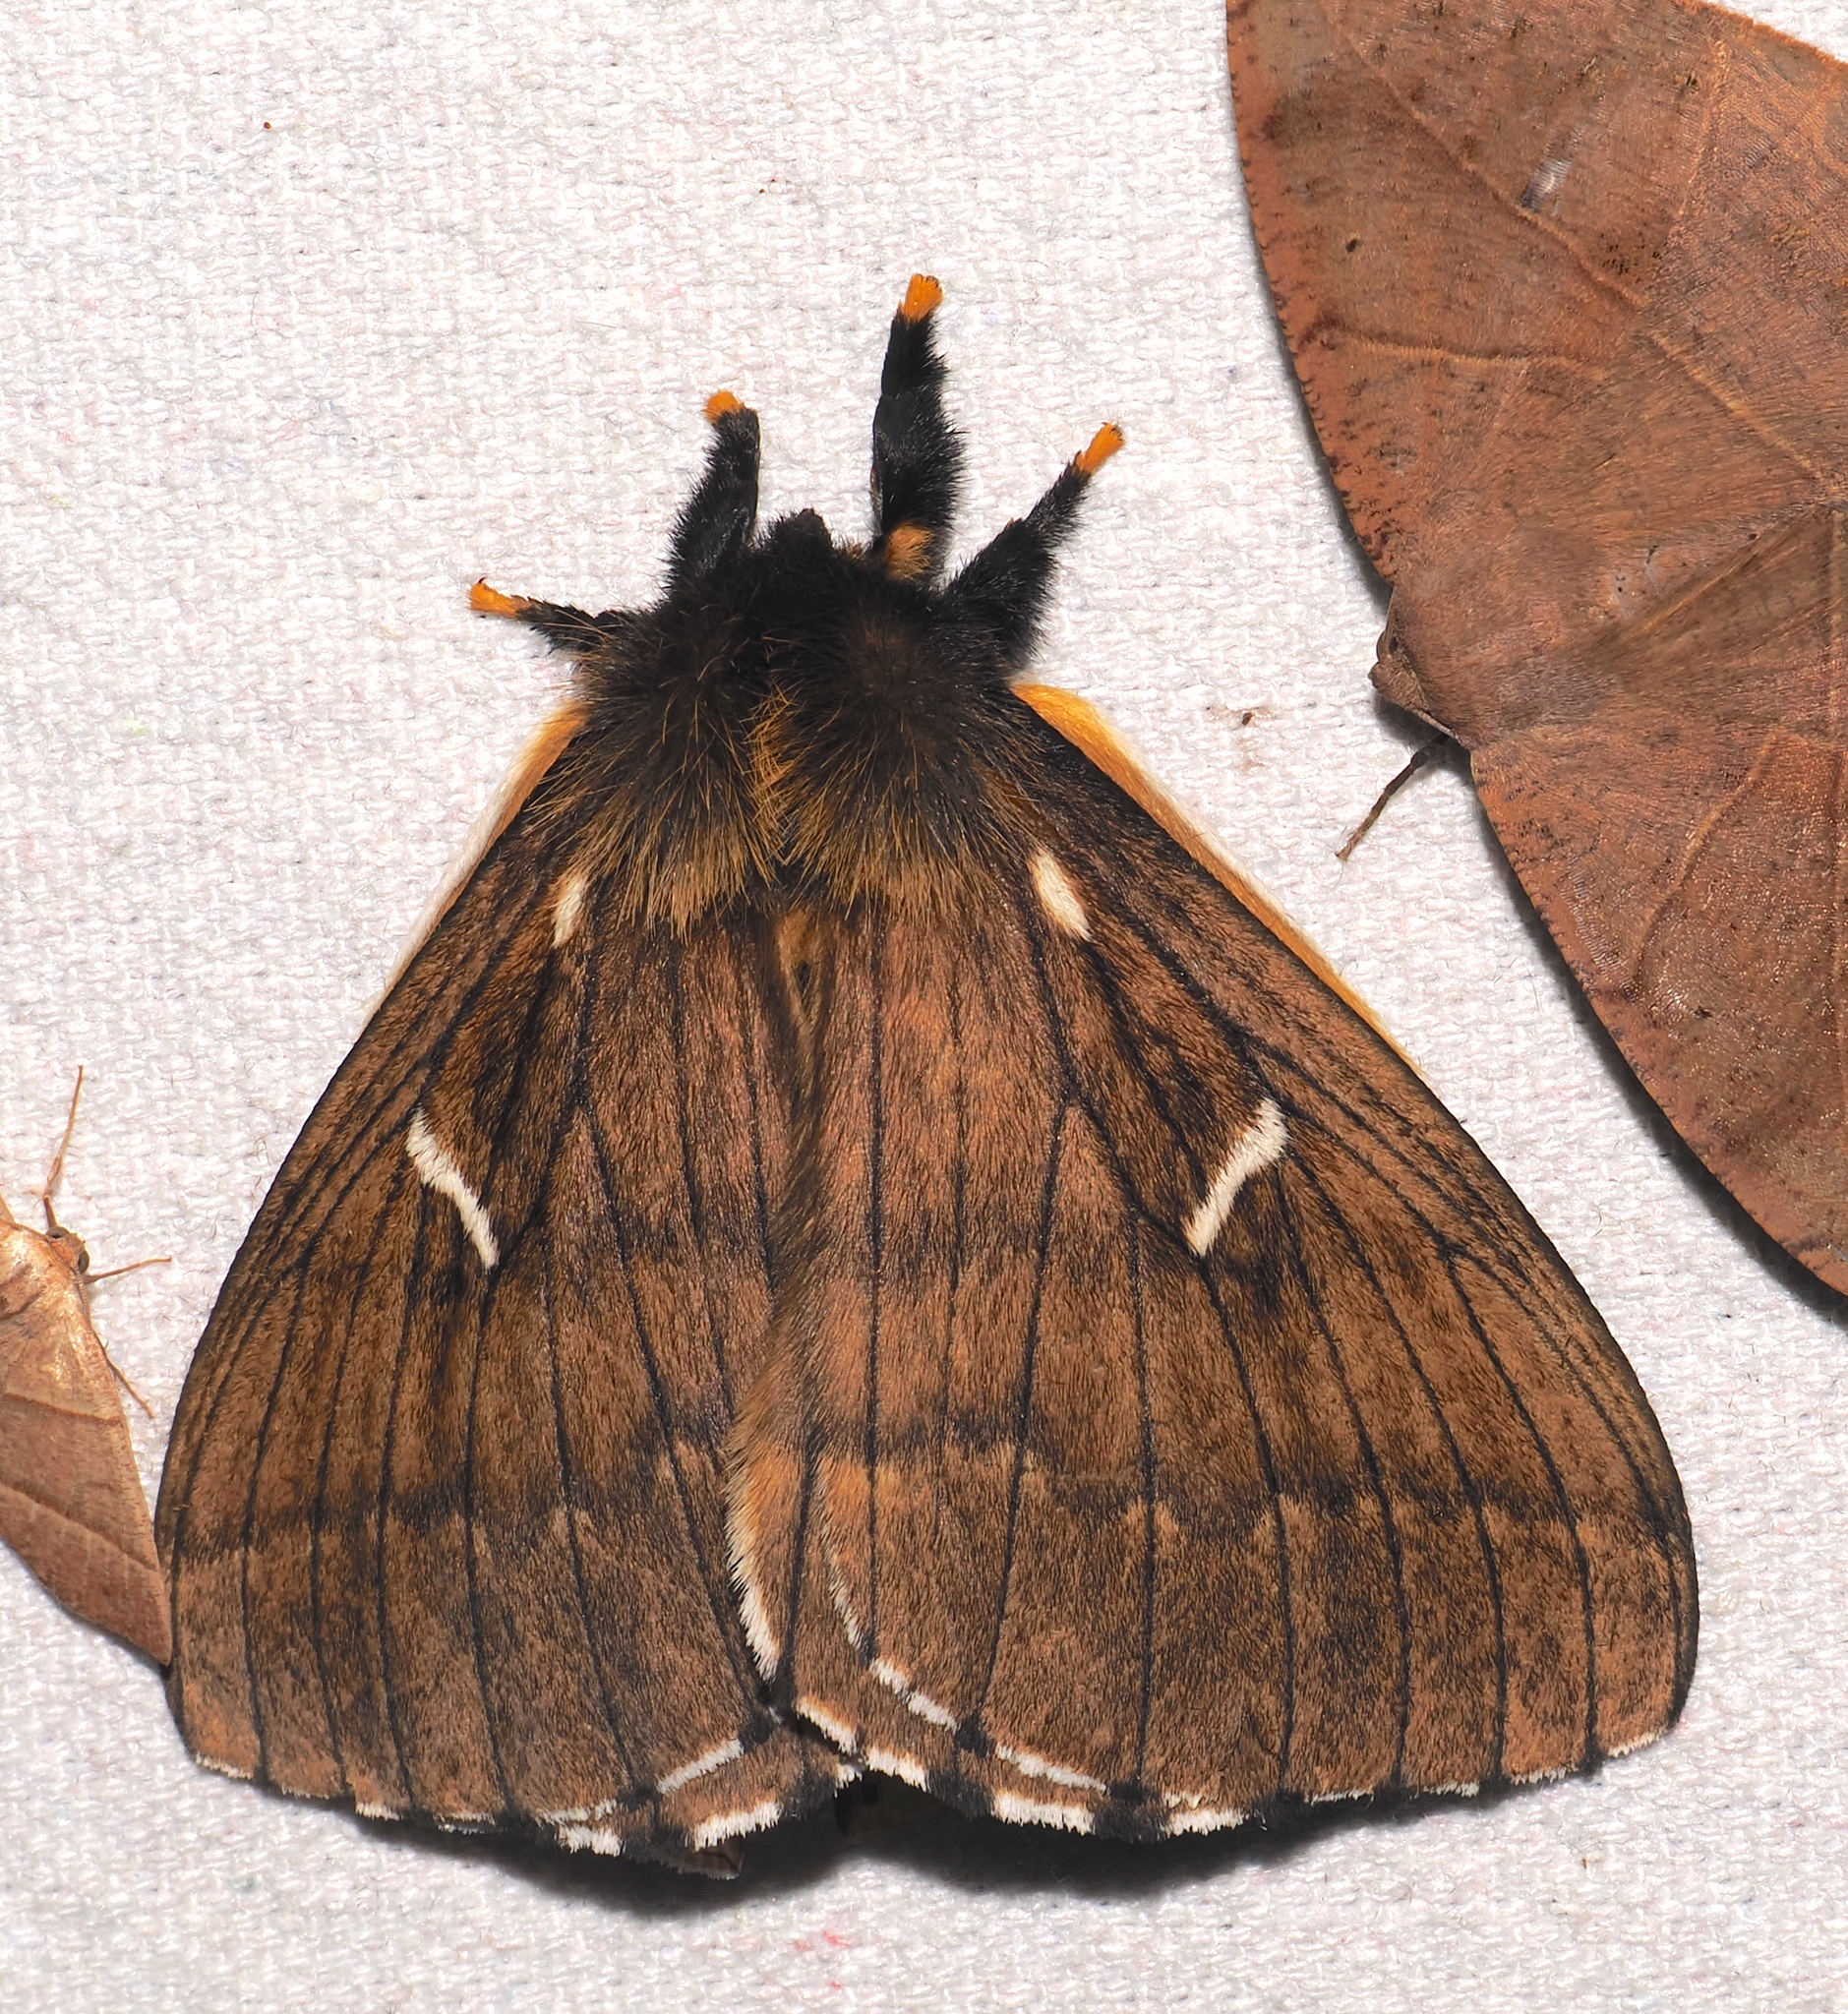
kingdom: Animalia
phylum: Arthropoda
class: Insecta
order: Lepidoptera
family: Saturniidae
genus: Meroleuca
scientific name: Meroleuca litura
